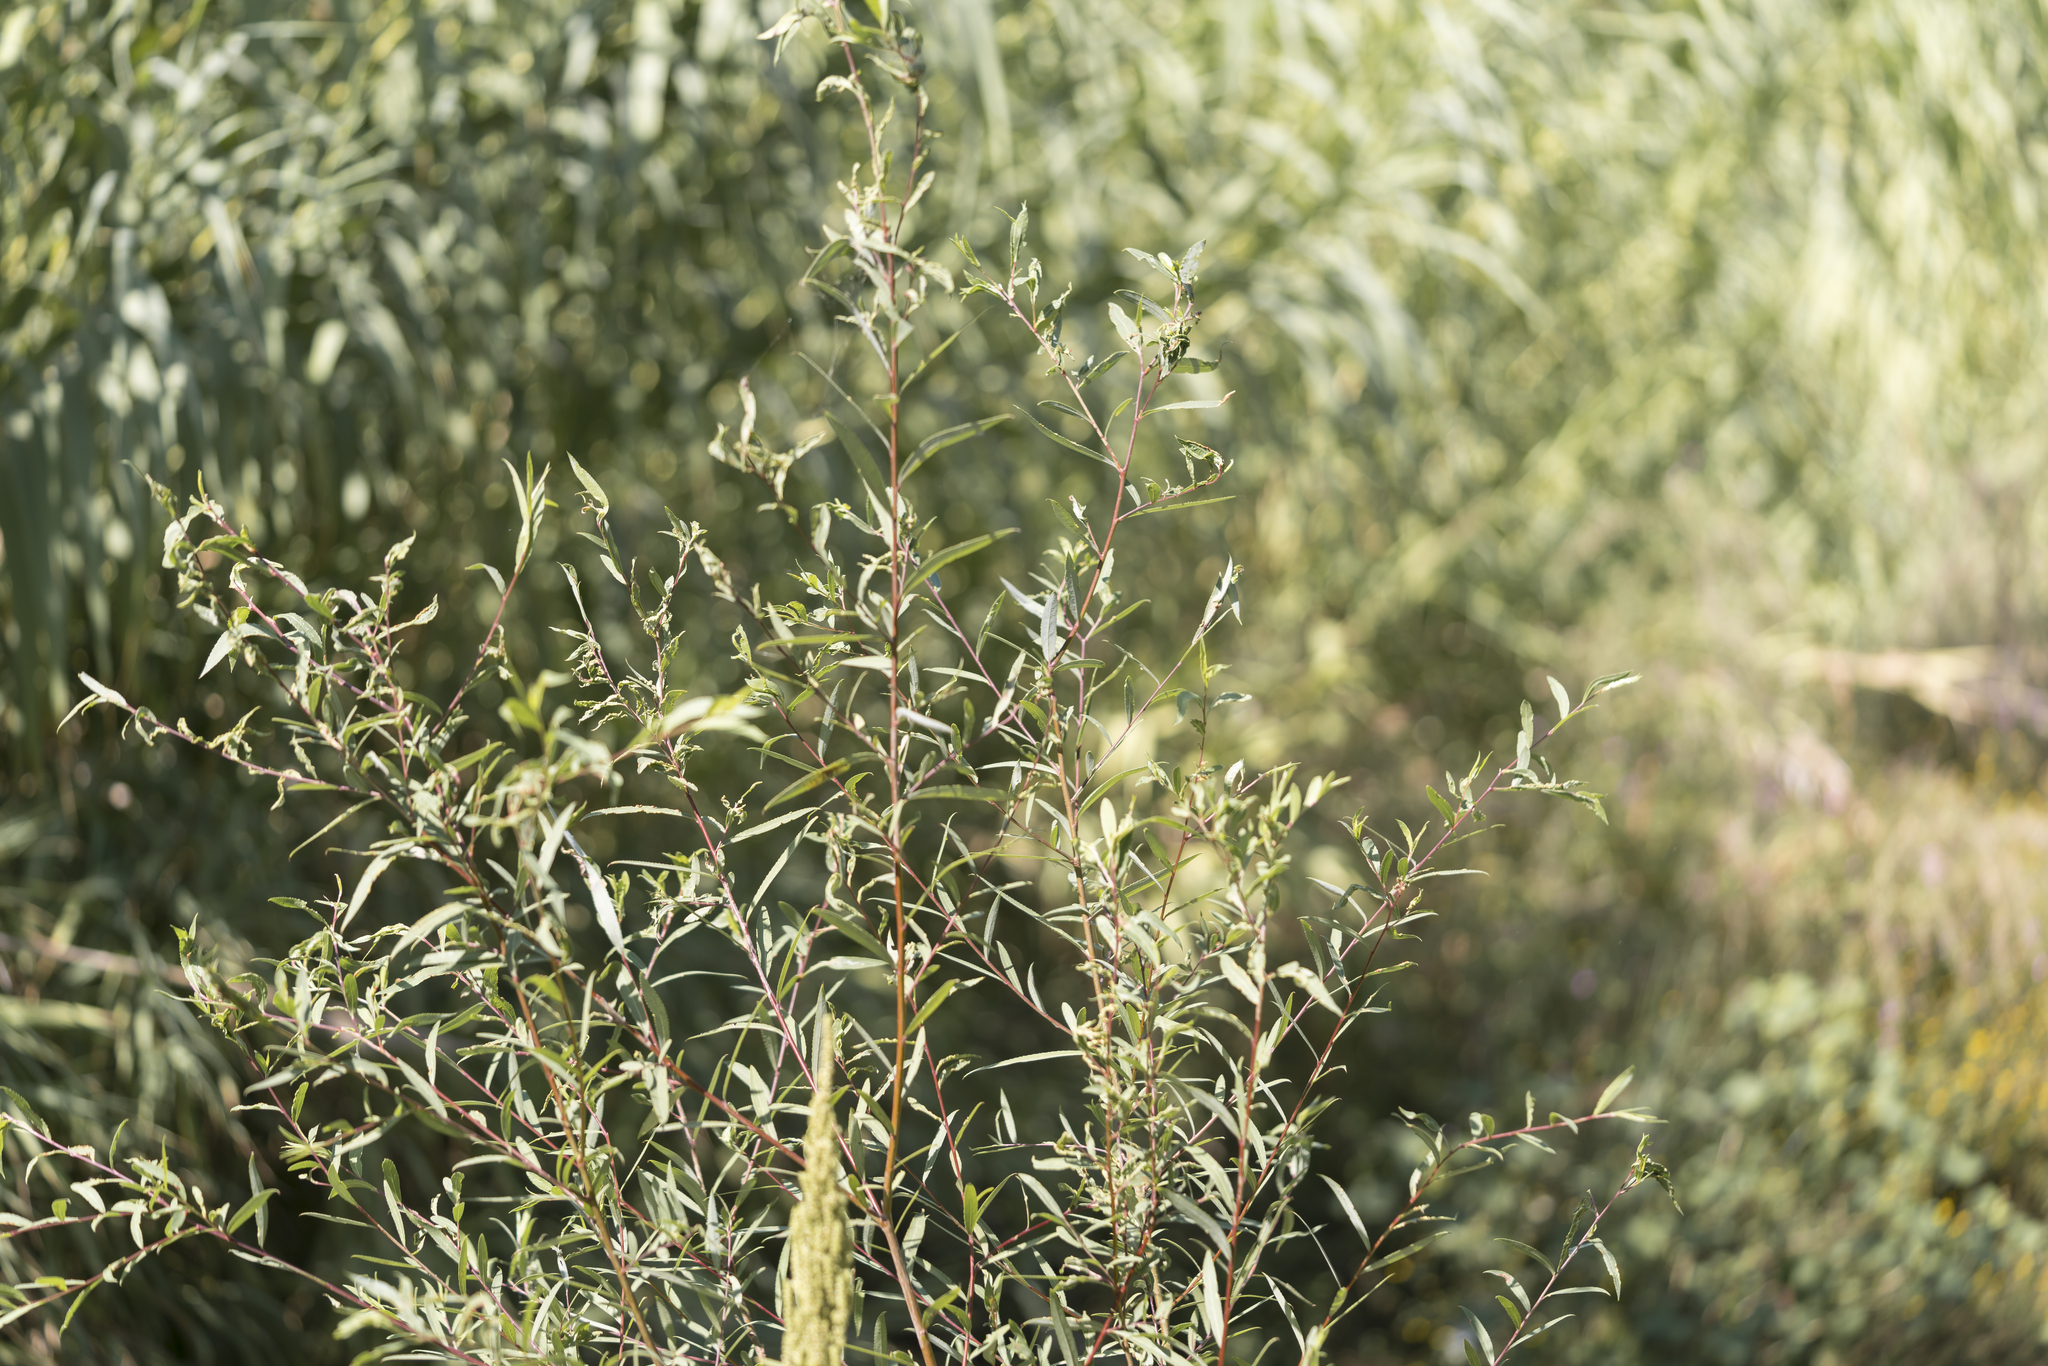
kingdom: Plantae
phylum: Tracheophyta
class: Magnoliopsida
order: Malpighiales
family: Salicaceae
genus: Salix
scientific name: Salix alba
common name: White willow
